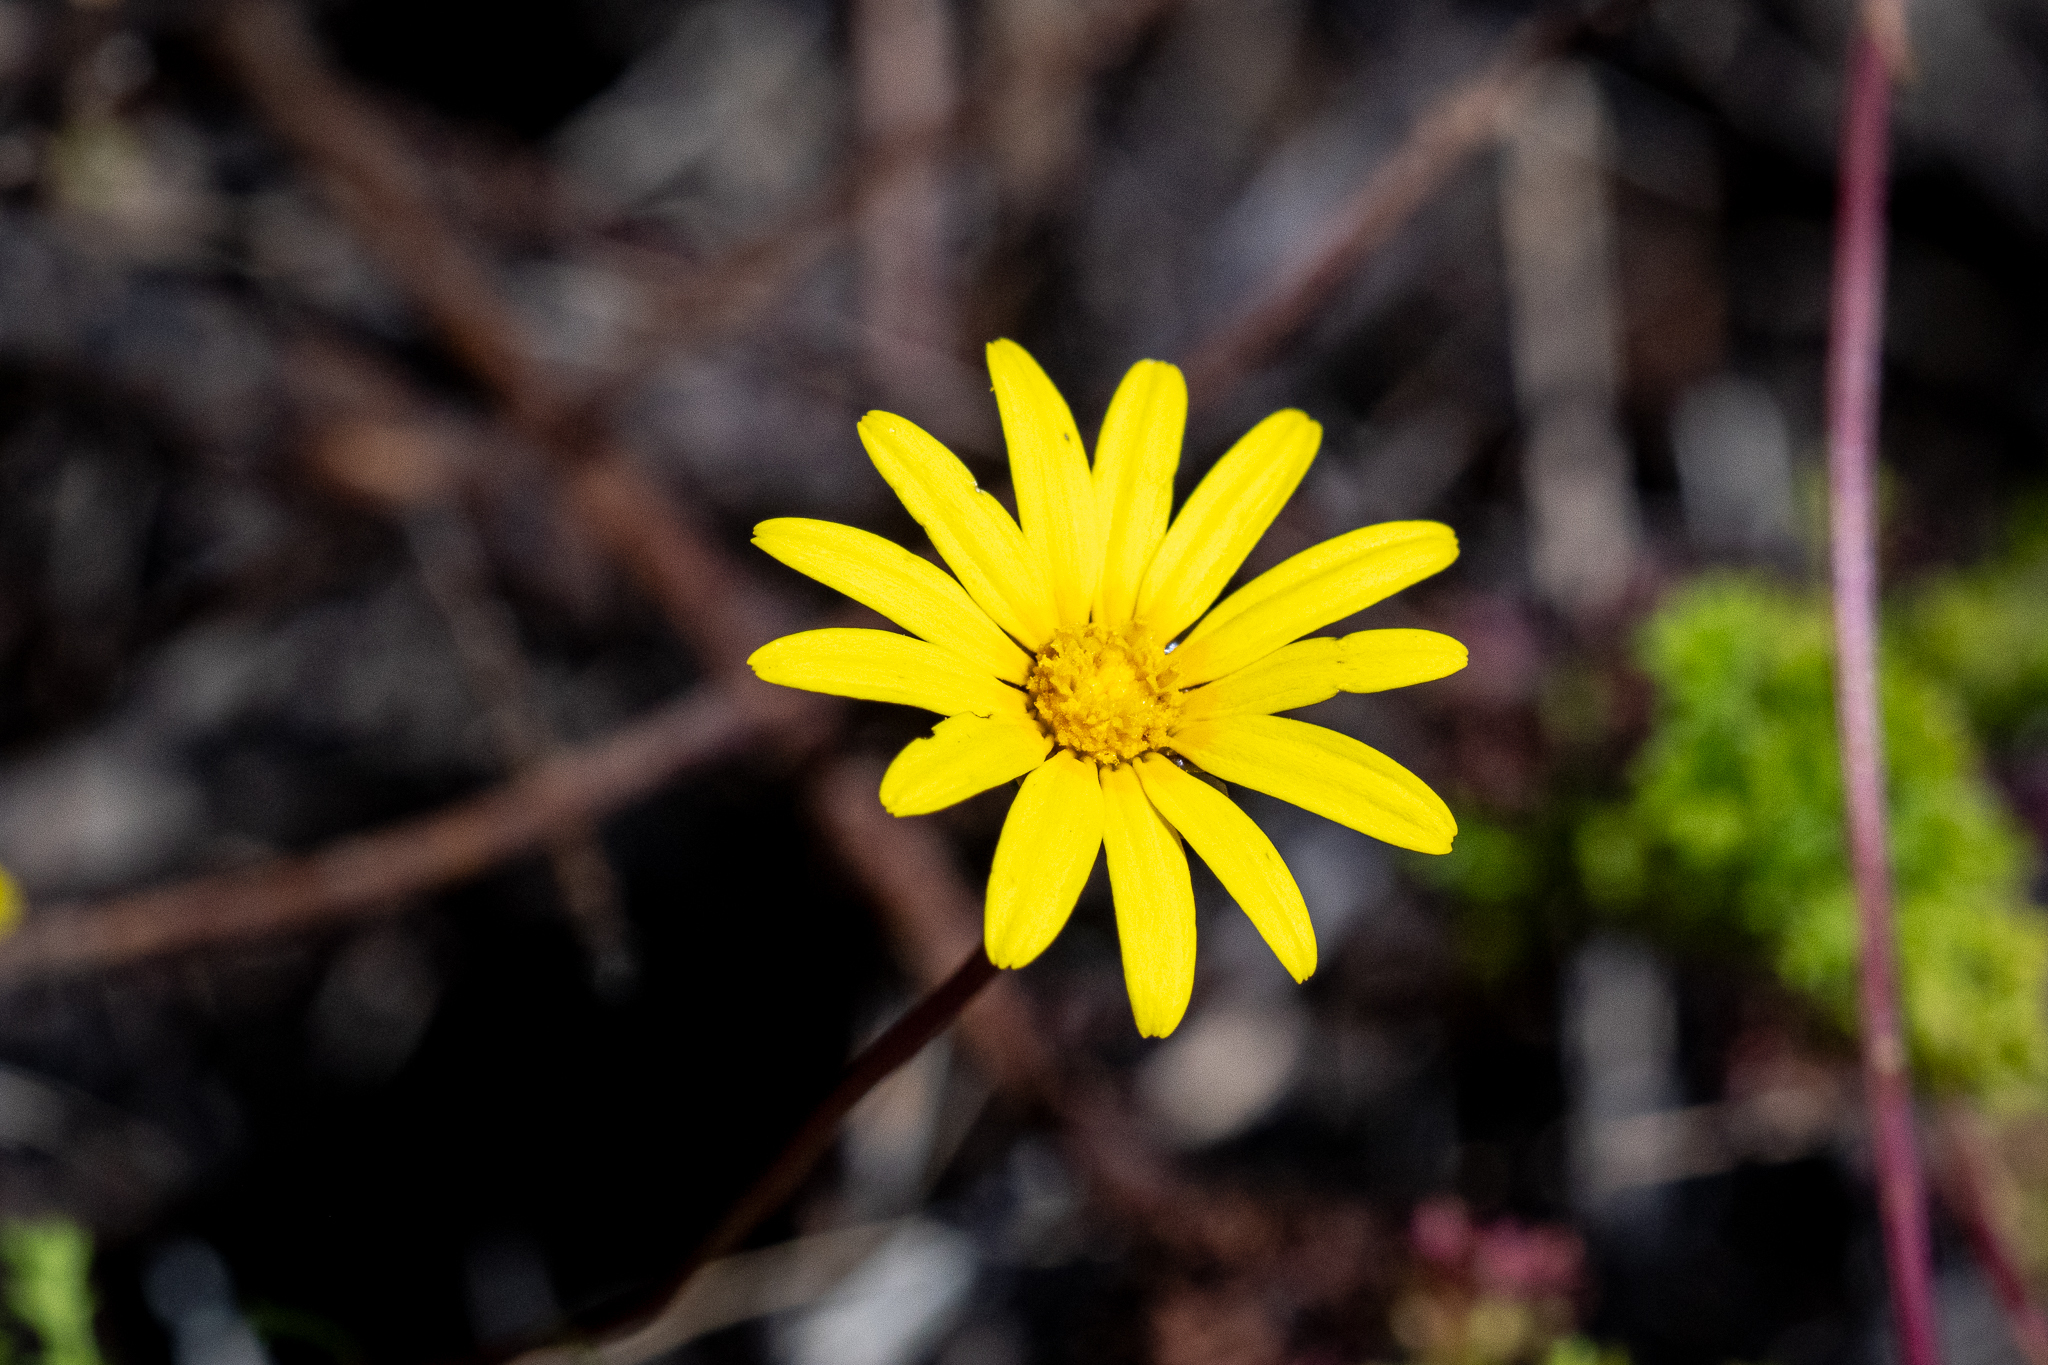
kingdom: Plantae
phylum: Tracheophyta
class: Magnoliopsida
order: Asterales
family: Asteraceae
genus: Ursinia
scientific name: Ursinia dentata
